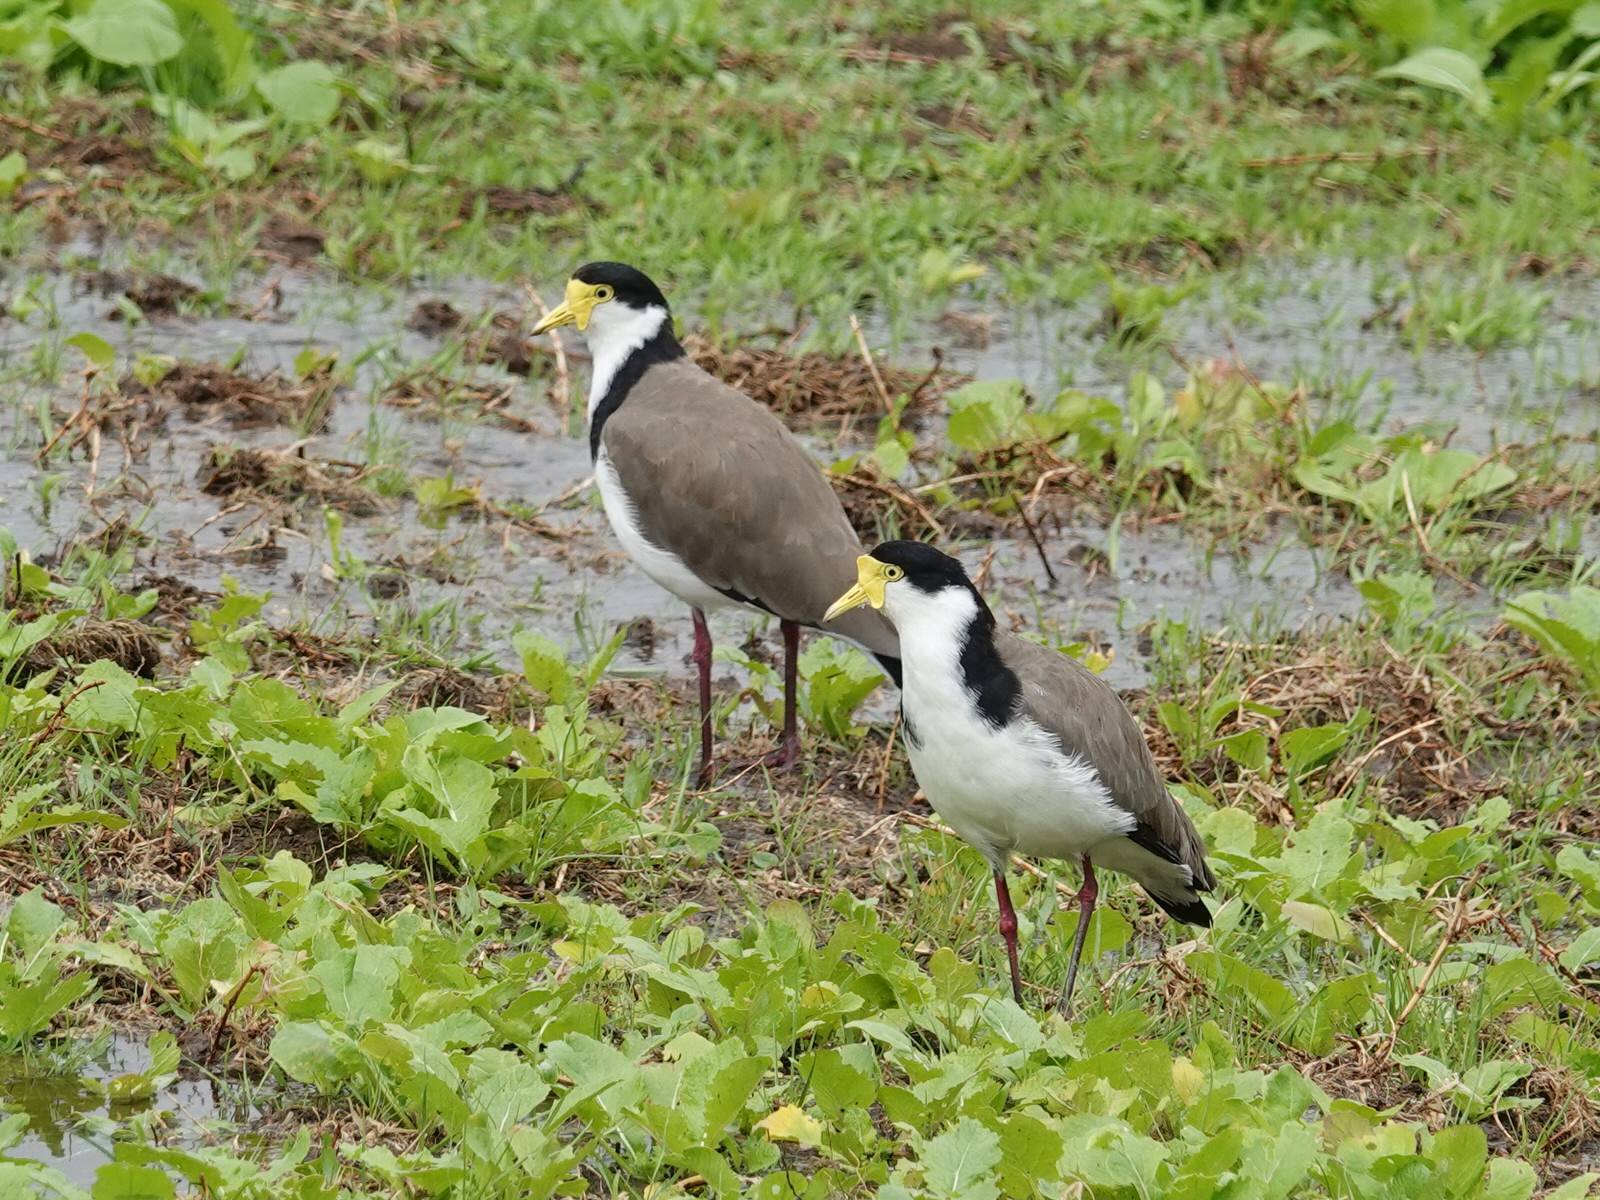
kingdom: Animalia
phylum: Chordata
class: Aves
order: Charadriiformes
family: Charadriidae
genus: Vanellus
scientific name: Vanellus miles
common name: Masked lapwing
